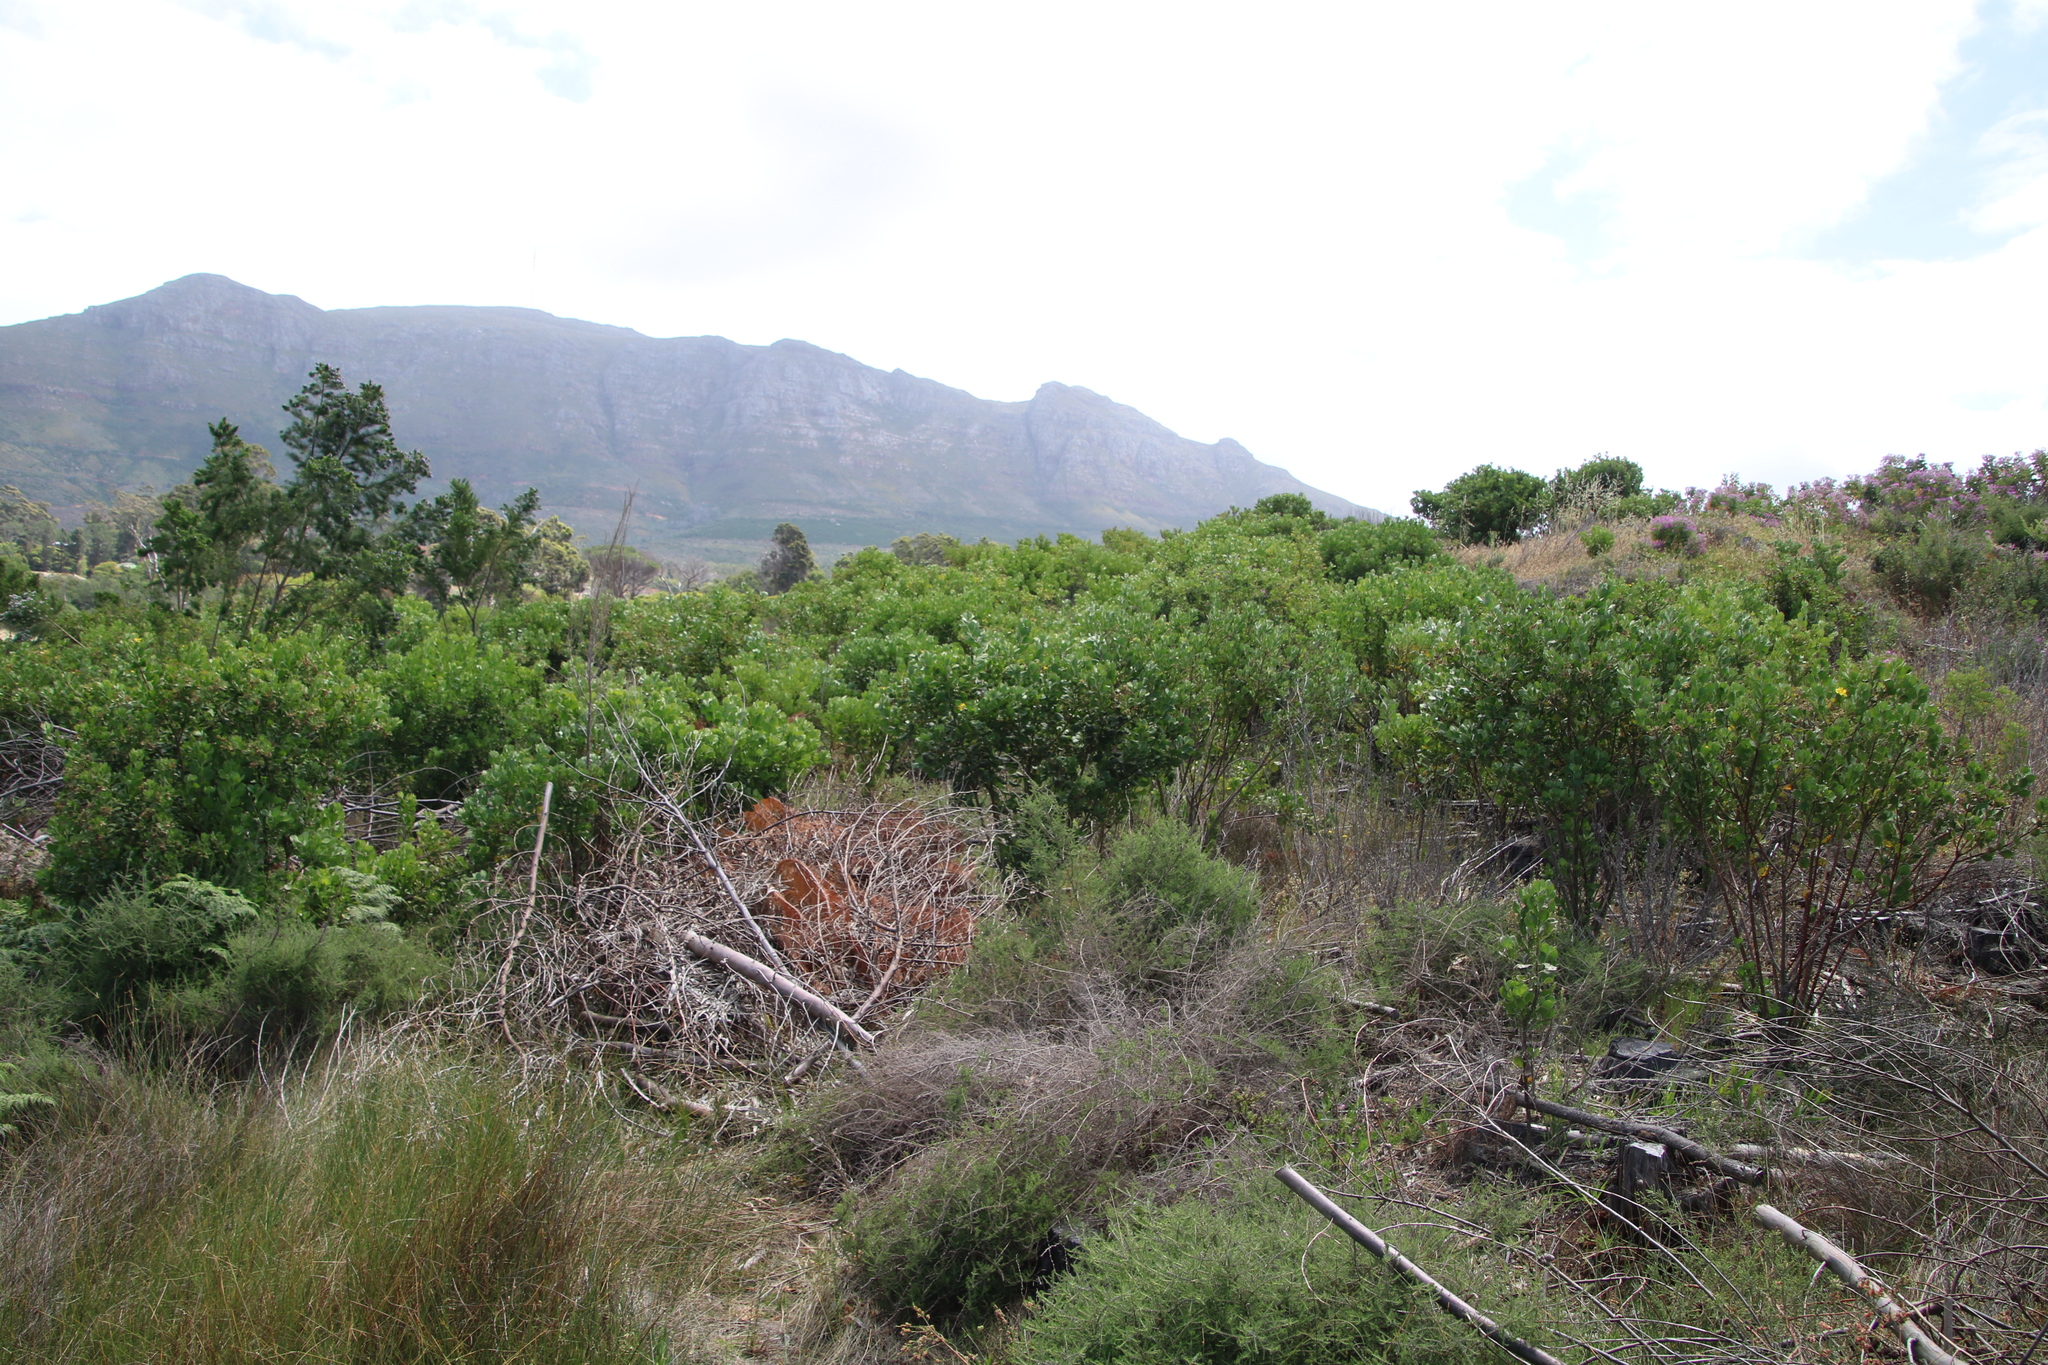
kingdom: Plantae
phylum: Tracheophyta
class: Magnoliopsida
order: Asterales
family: Asteraceae
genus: Osteospermum
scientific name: Osteospermum moniliferum
